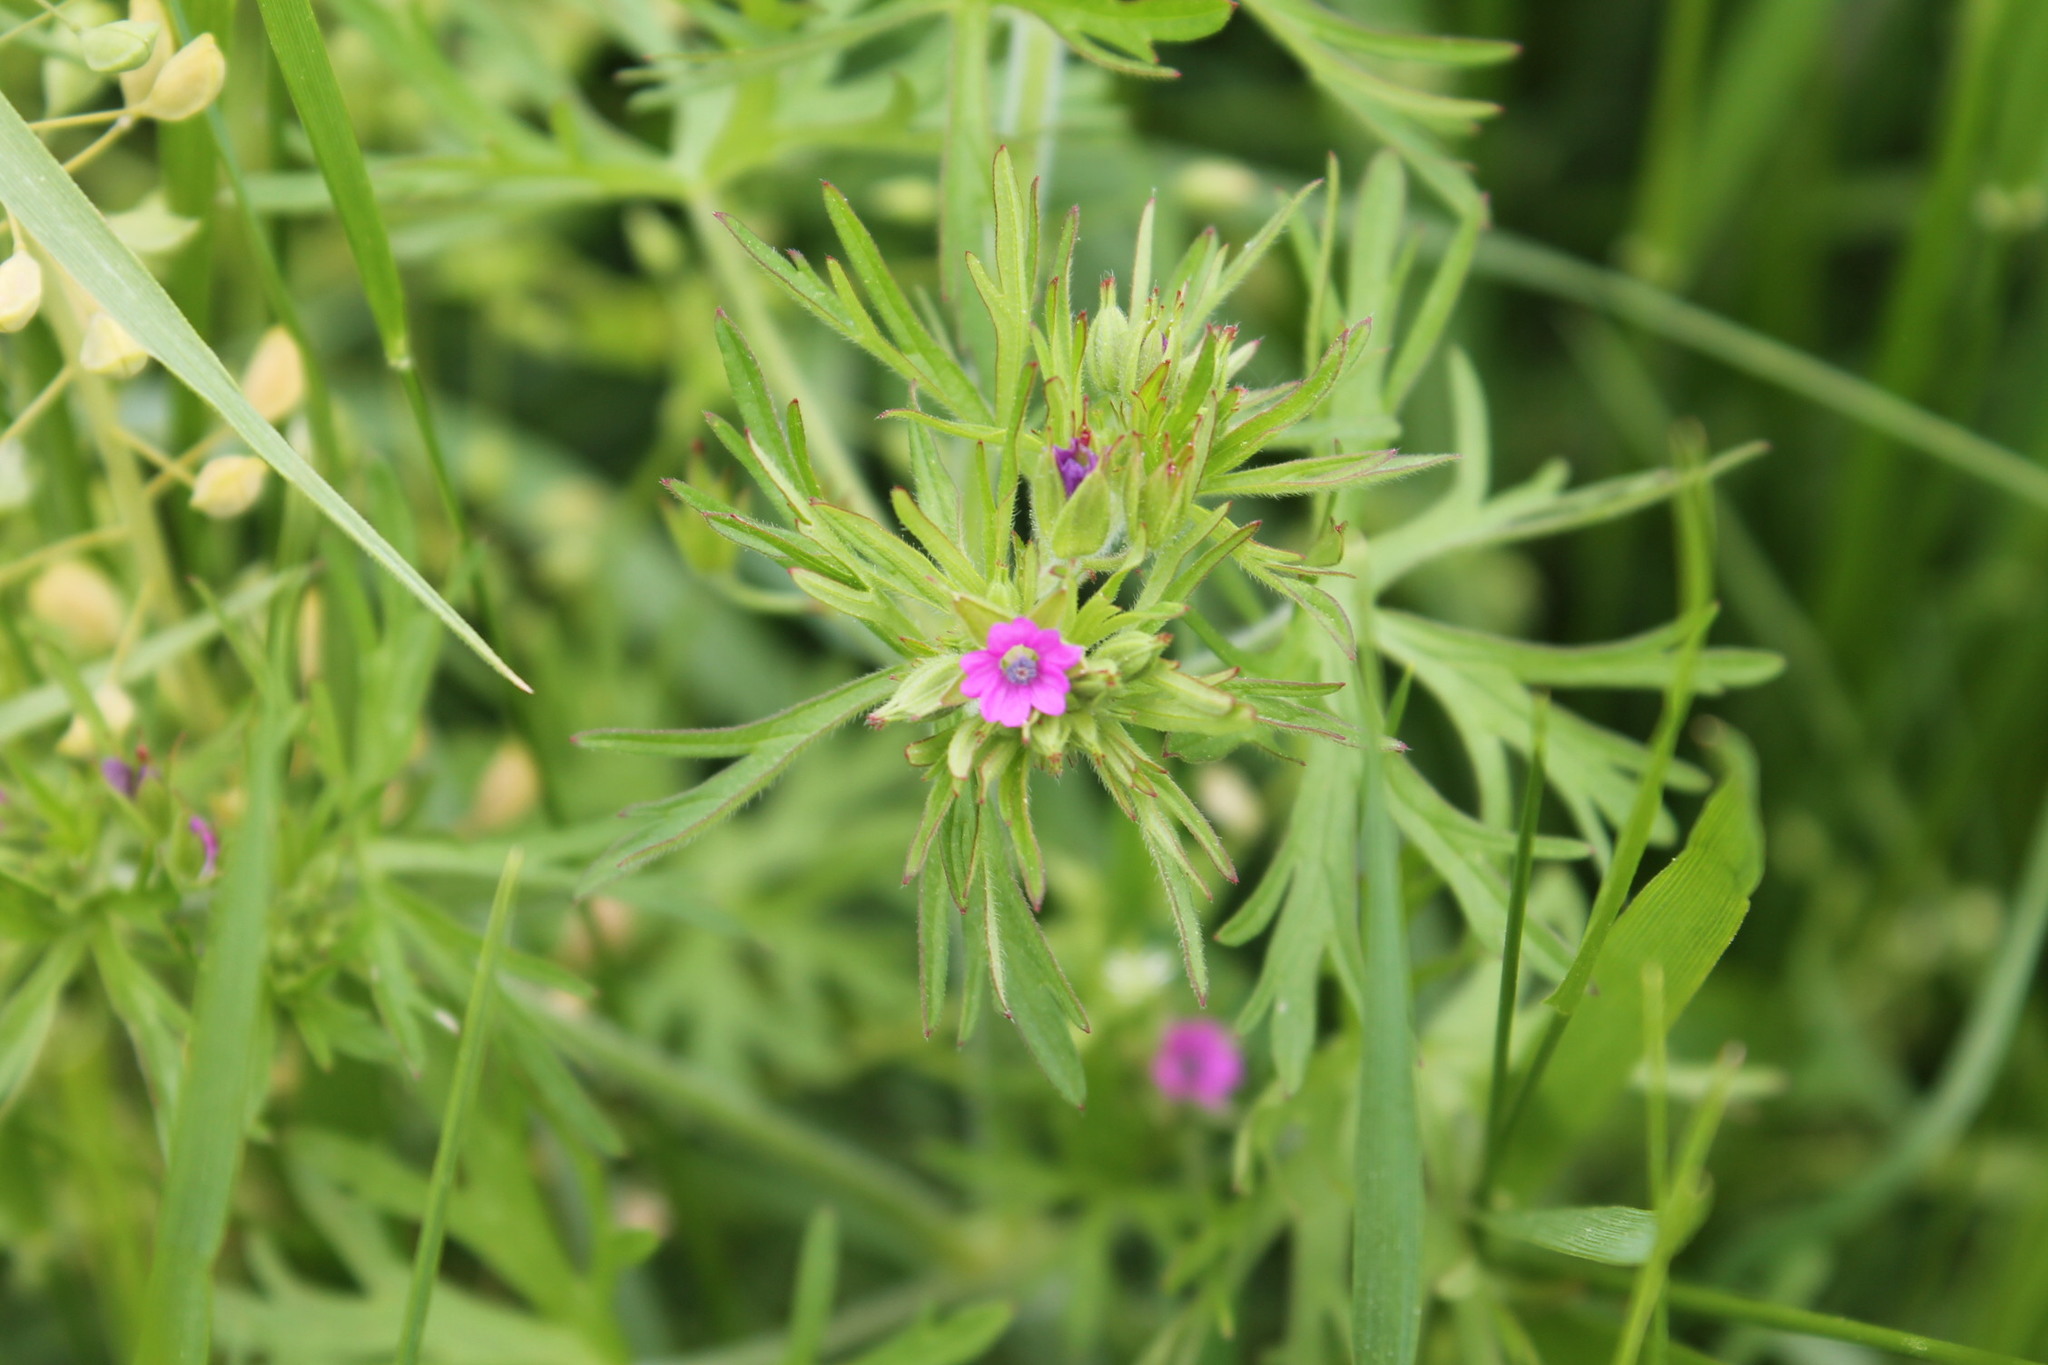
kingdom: Plantae
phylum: Tracheophyta
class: Magnoliopsida
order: Geraniales
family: Geraniaceae
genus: Geranium
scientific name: Geranium dissectum
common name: Cut-leaved crane's-bill
